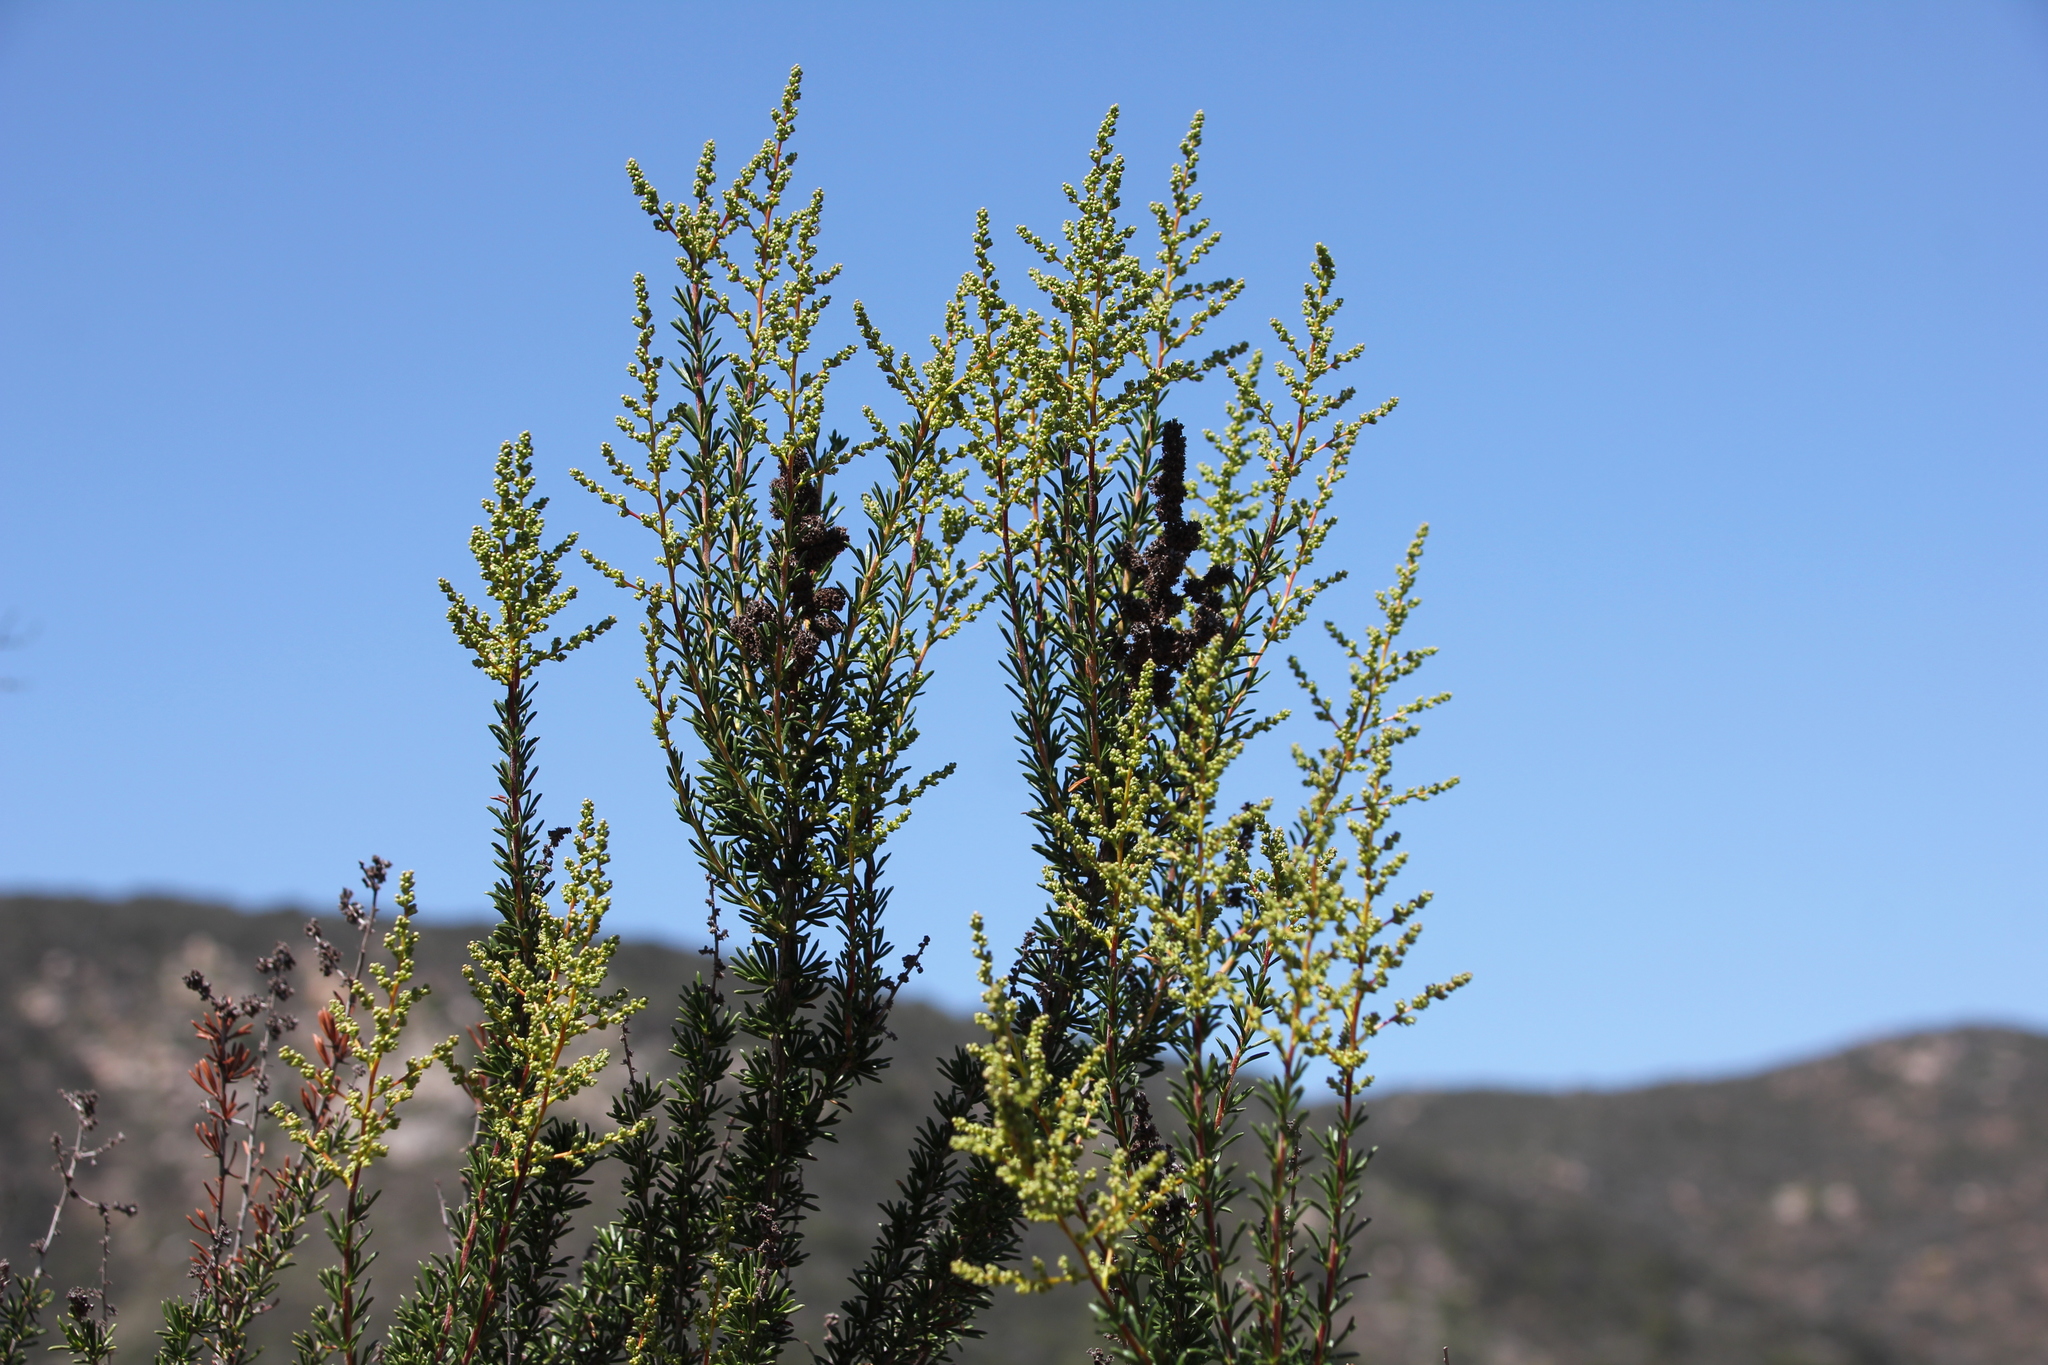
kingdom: Plantae
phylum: Tracheophyta
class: Magnoliopsida
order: Rosales
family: Rosaceae
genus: Adenostoma
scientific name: Adenostoma fasciculatum
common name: Chamise
